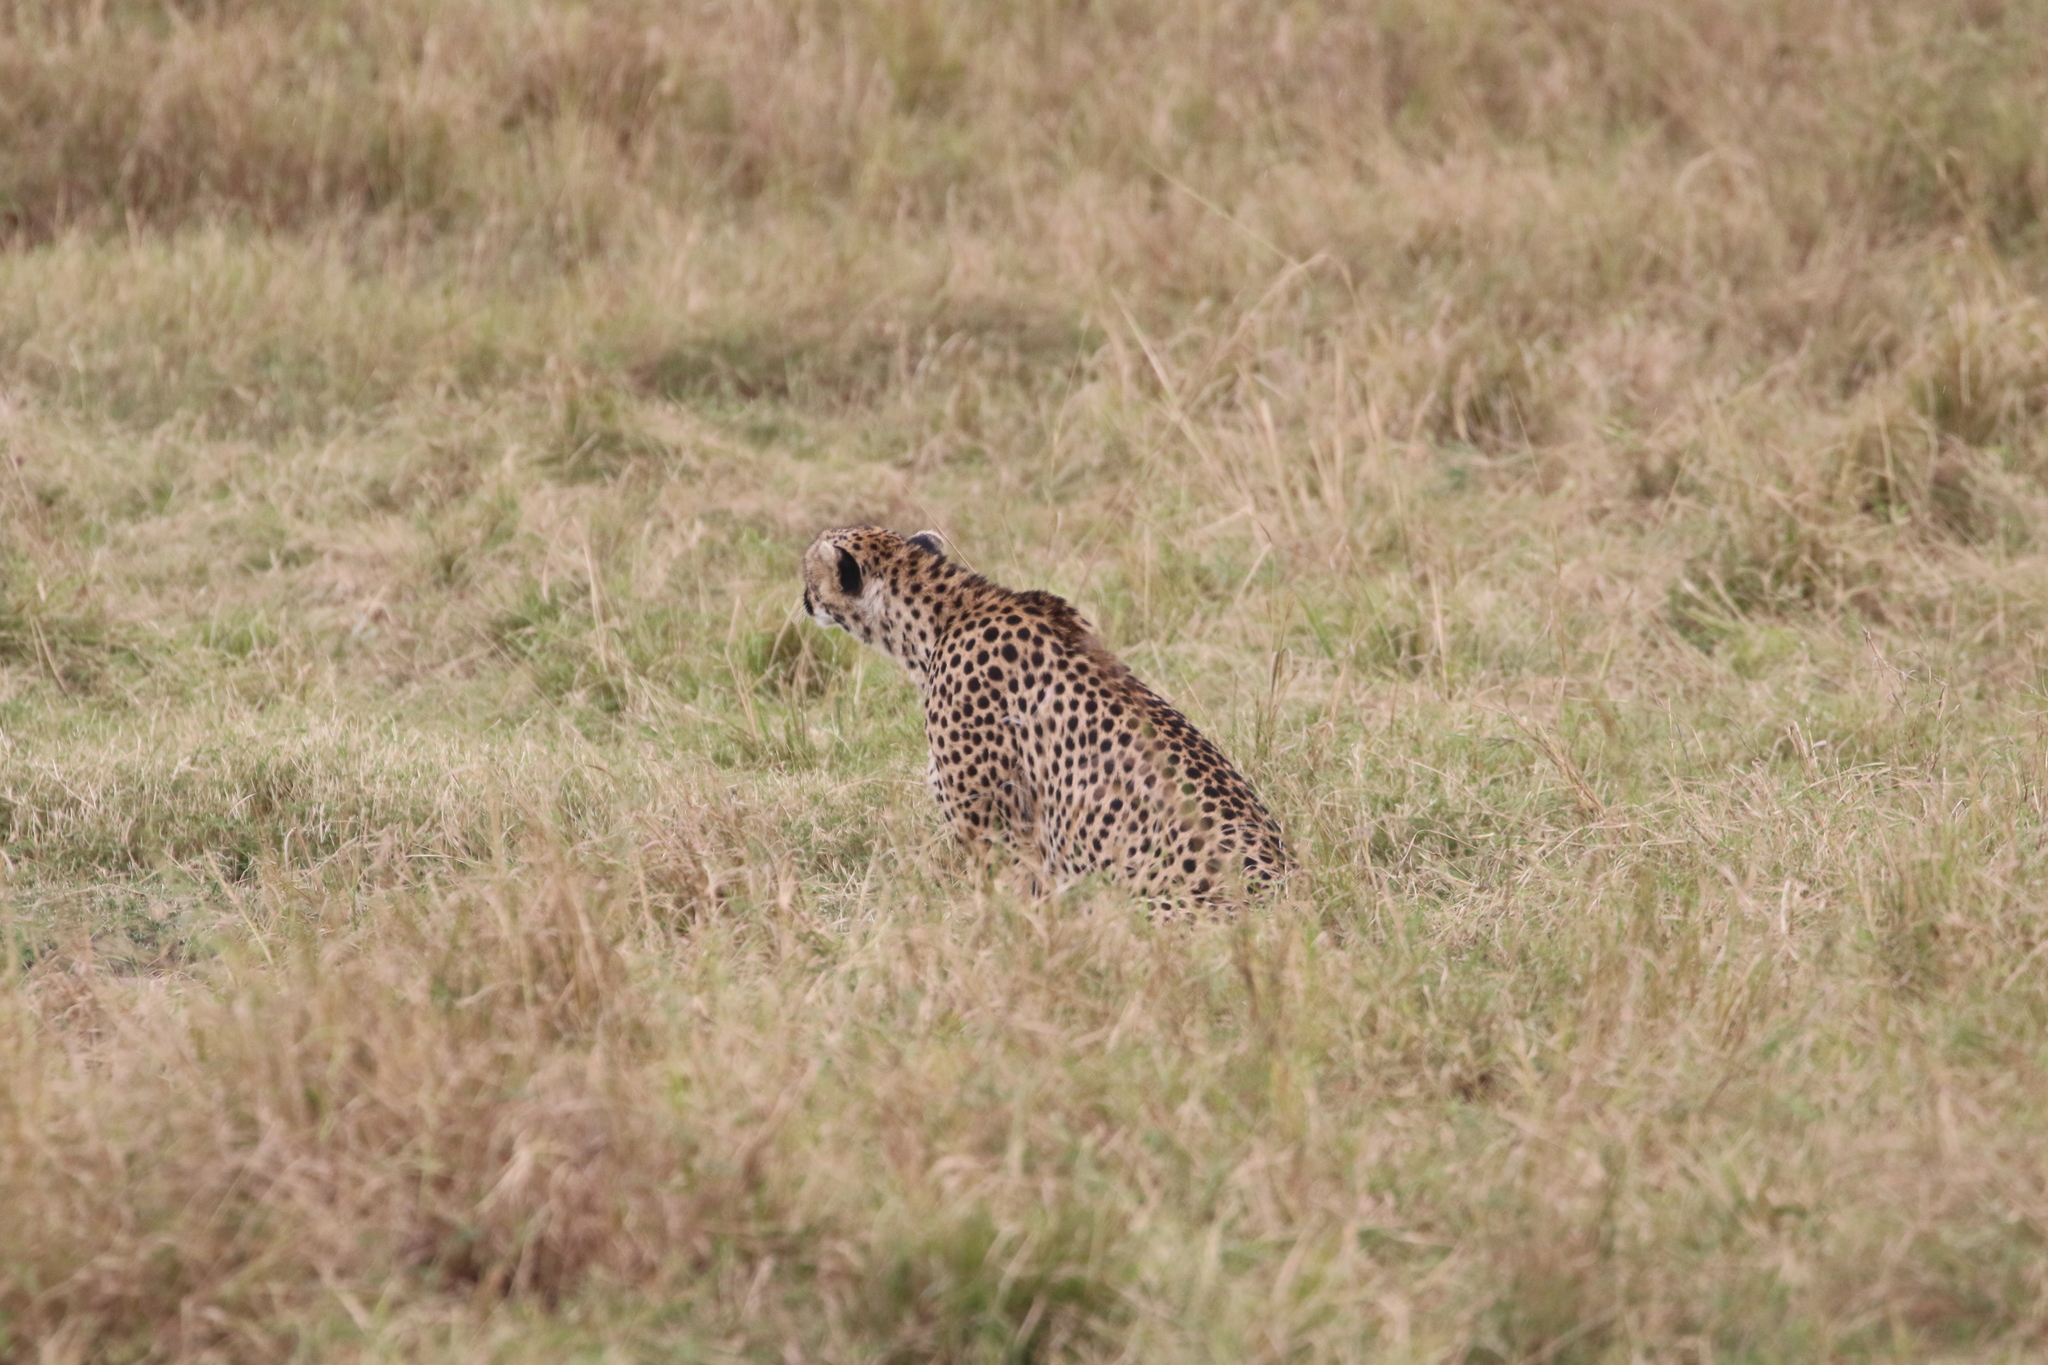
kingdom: Animalia
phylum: Chordata
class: Mammalia
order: Carnivora
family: Felidae
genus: Acinonyx
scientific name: Acinonyx jubatus
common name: Cheetah
